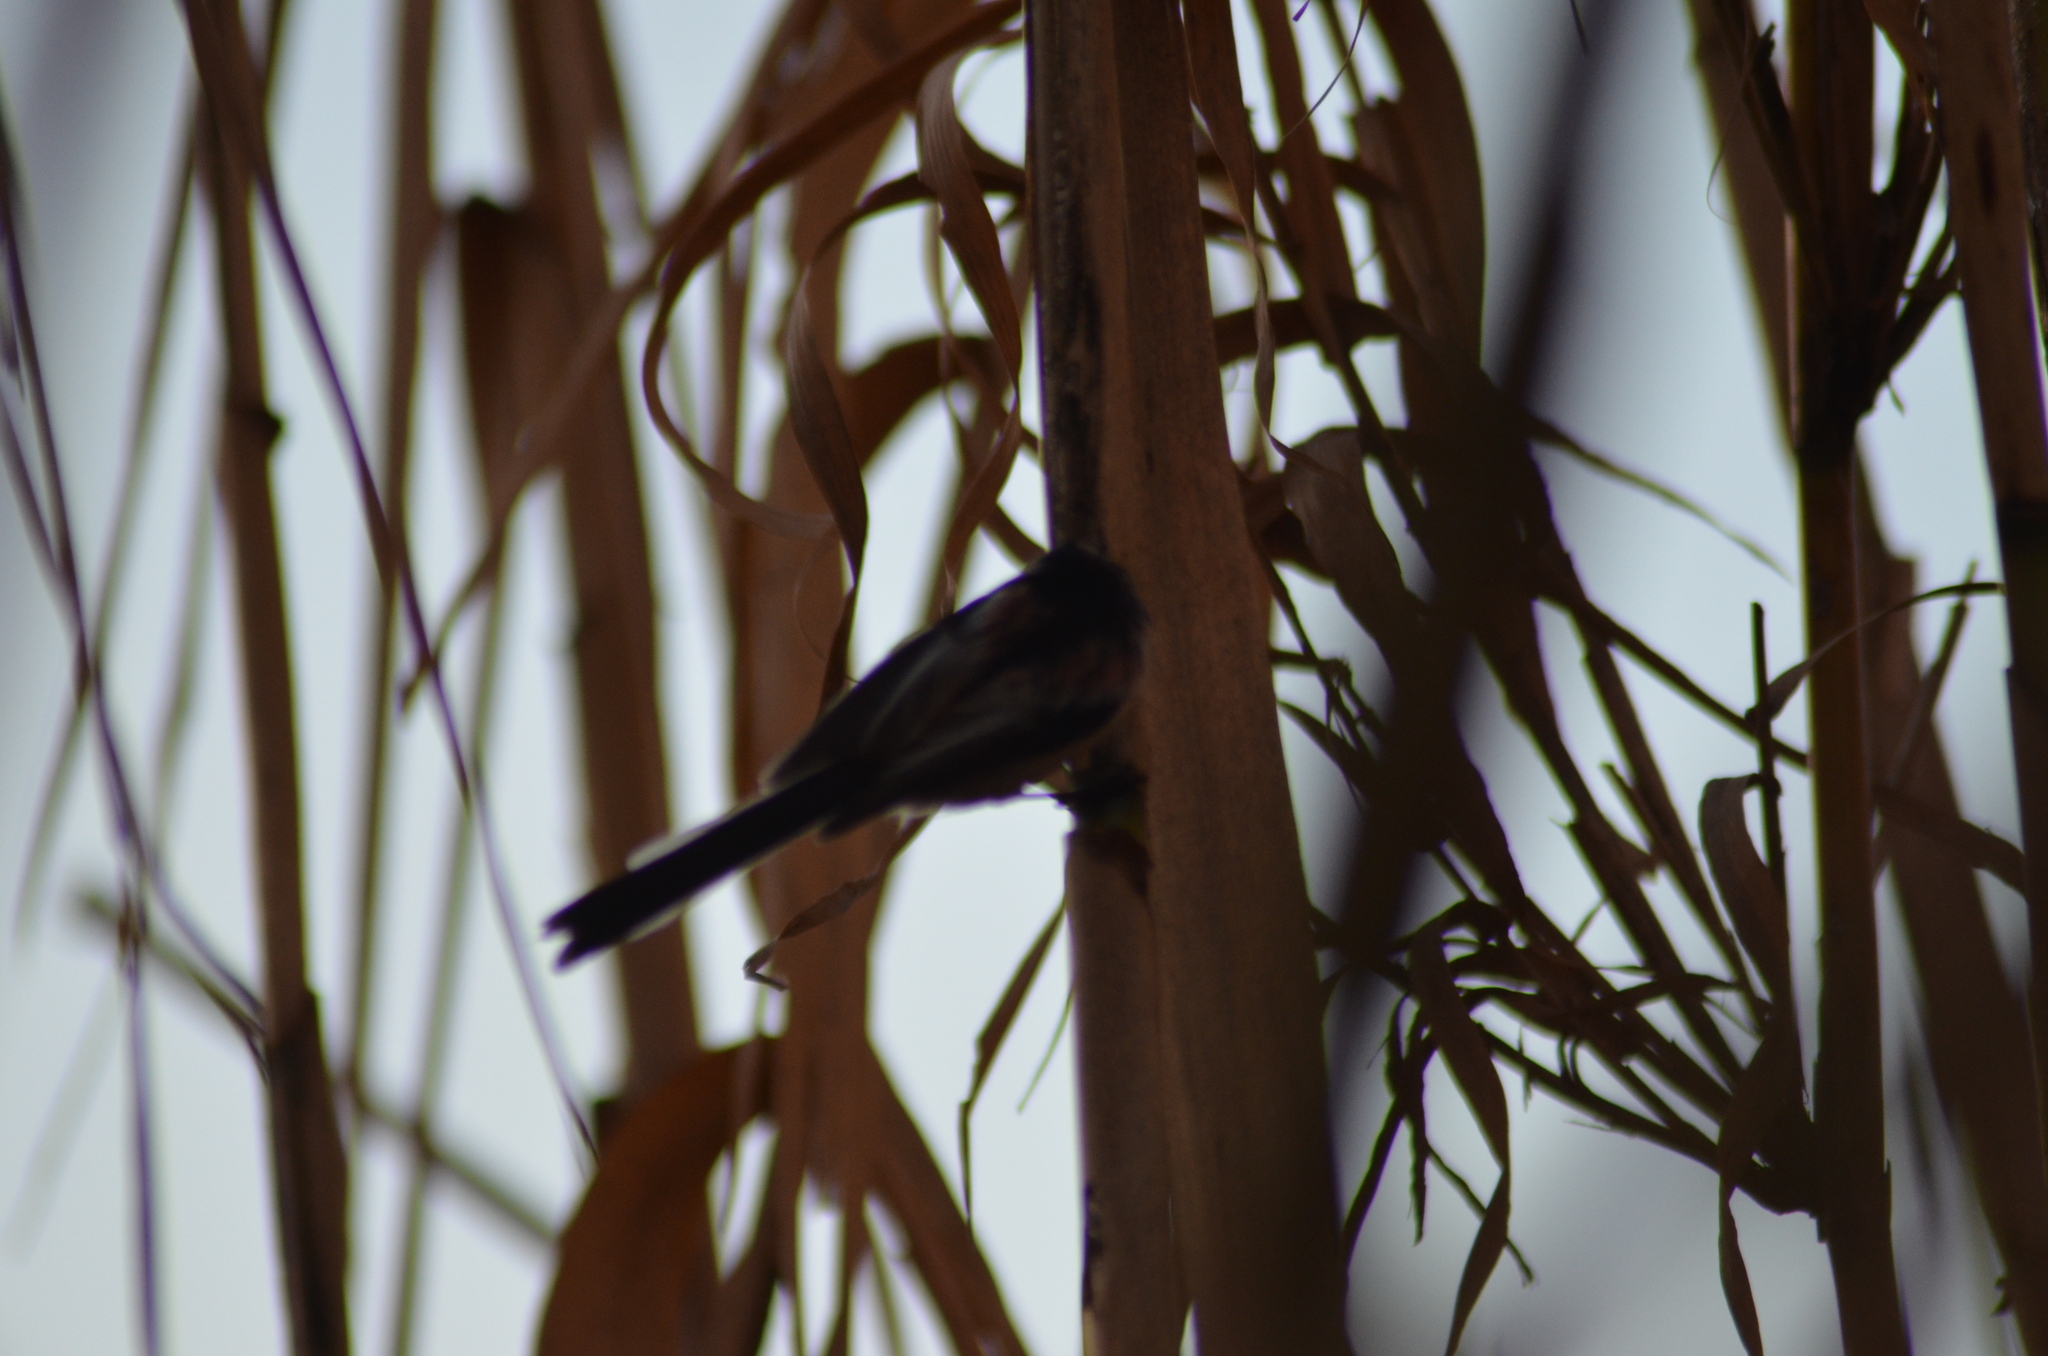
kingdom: Animalia
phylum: Chordata
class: Aves
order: Passeriformes
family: Aegithalidae
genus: Aegithalos
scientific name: Aegithalos caudatus
